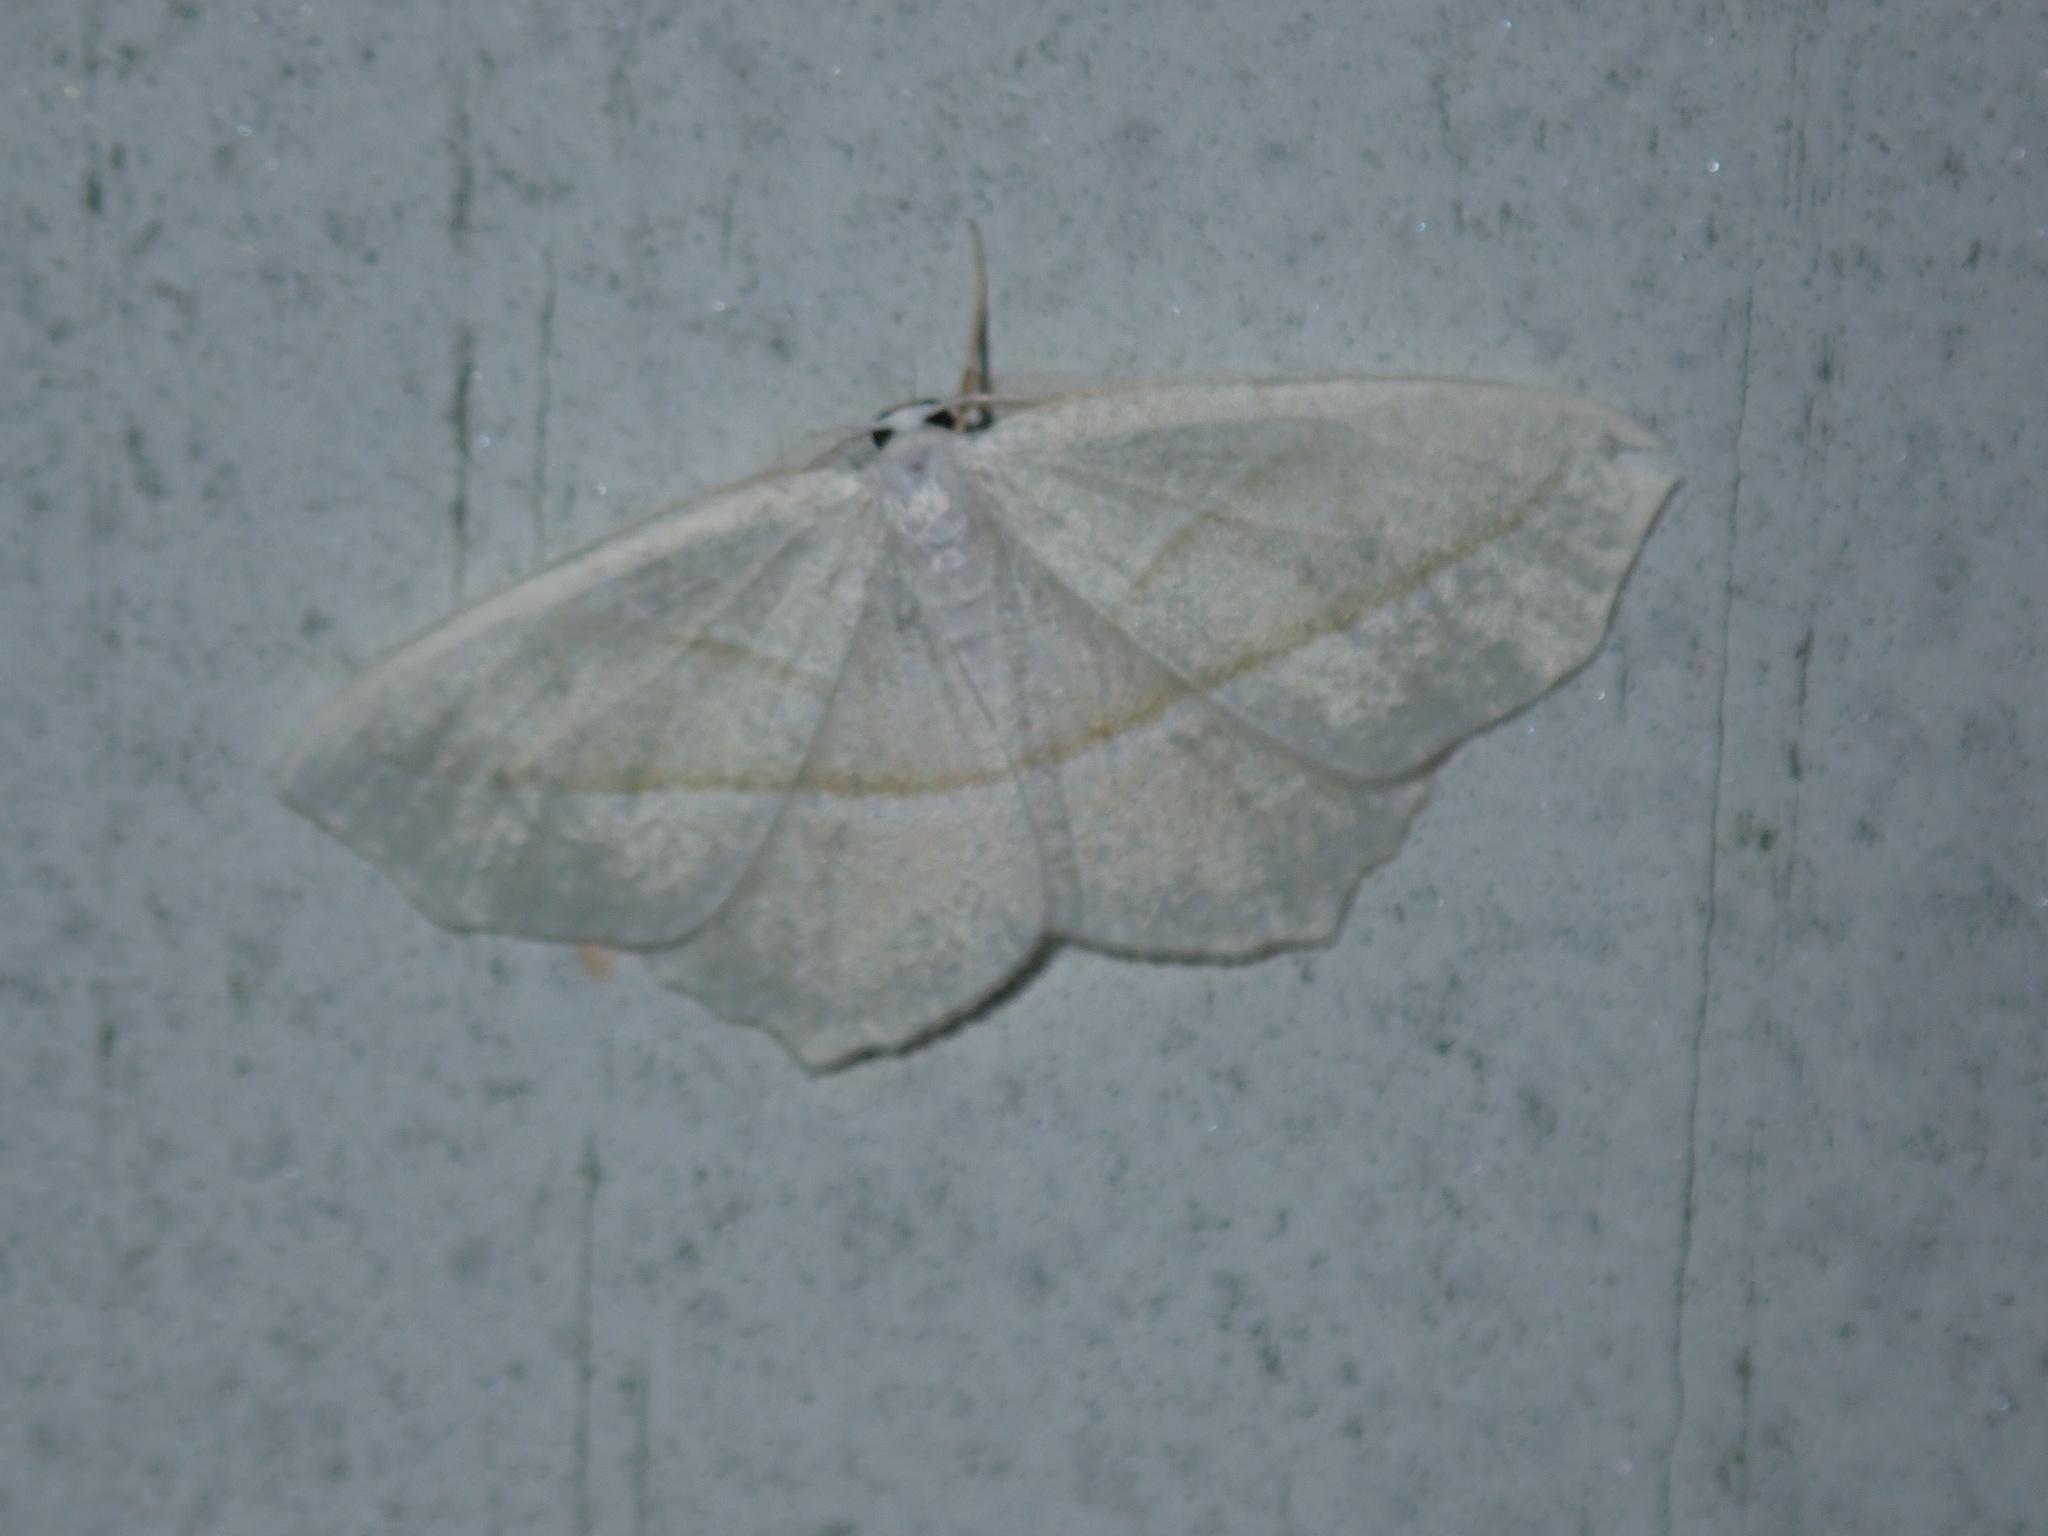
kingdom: Animalia
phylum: Arthropoda
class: Insecta
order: Lepidoptera
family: Geometridae
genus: Campaea
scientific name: Campaea perlata
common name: Fringed looper
